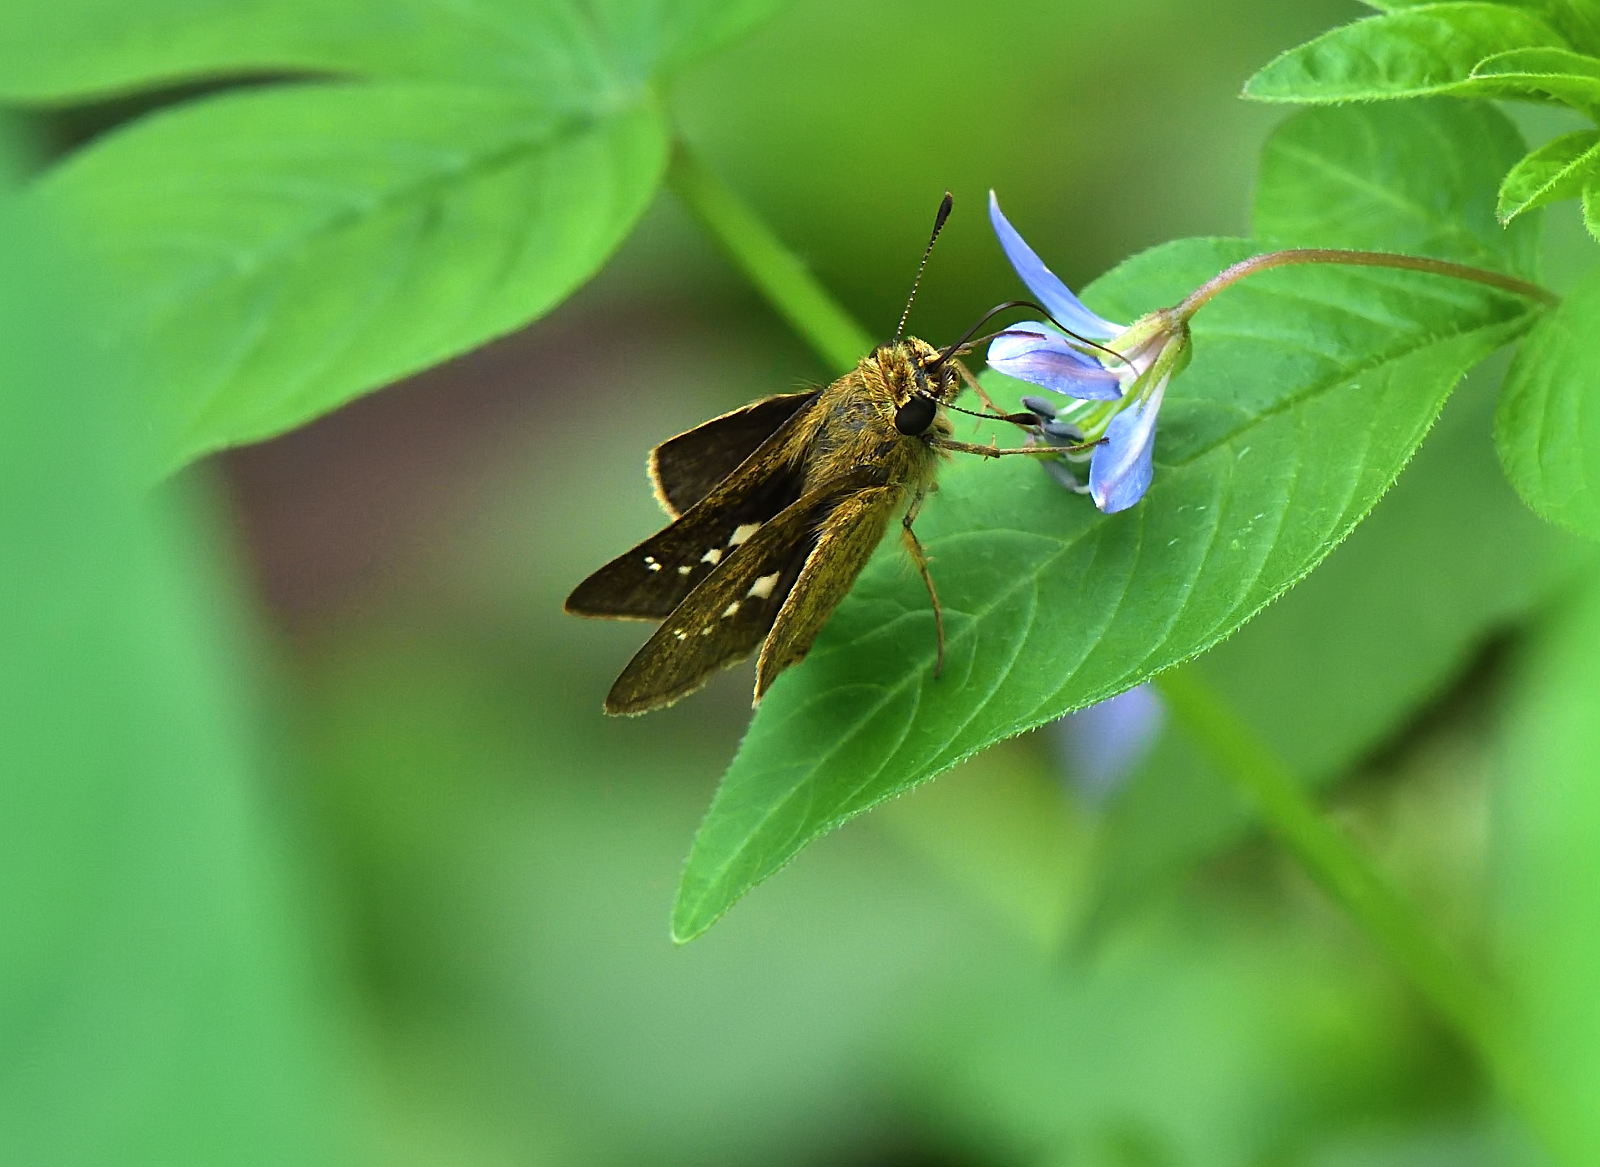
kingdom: Animalia
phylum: Arthropoda
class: Insecta
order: Lepidoptera
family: Hesperiidae
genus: Parnara
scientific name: Parnara naso
